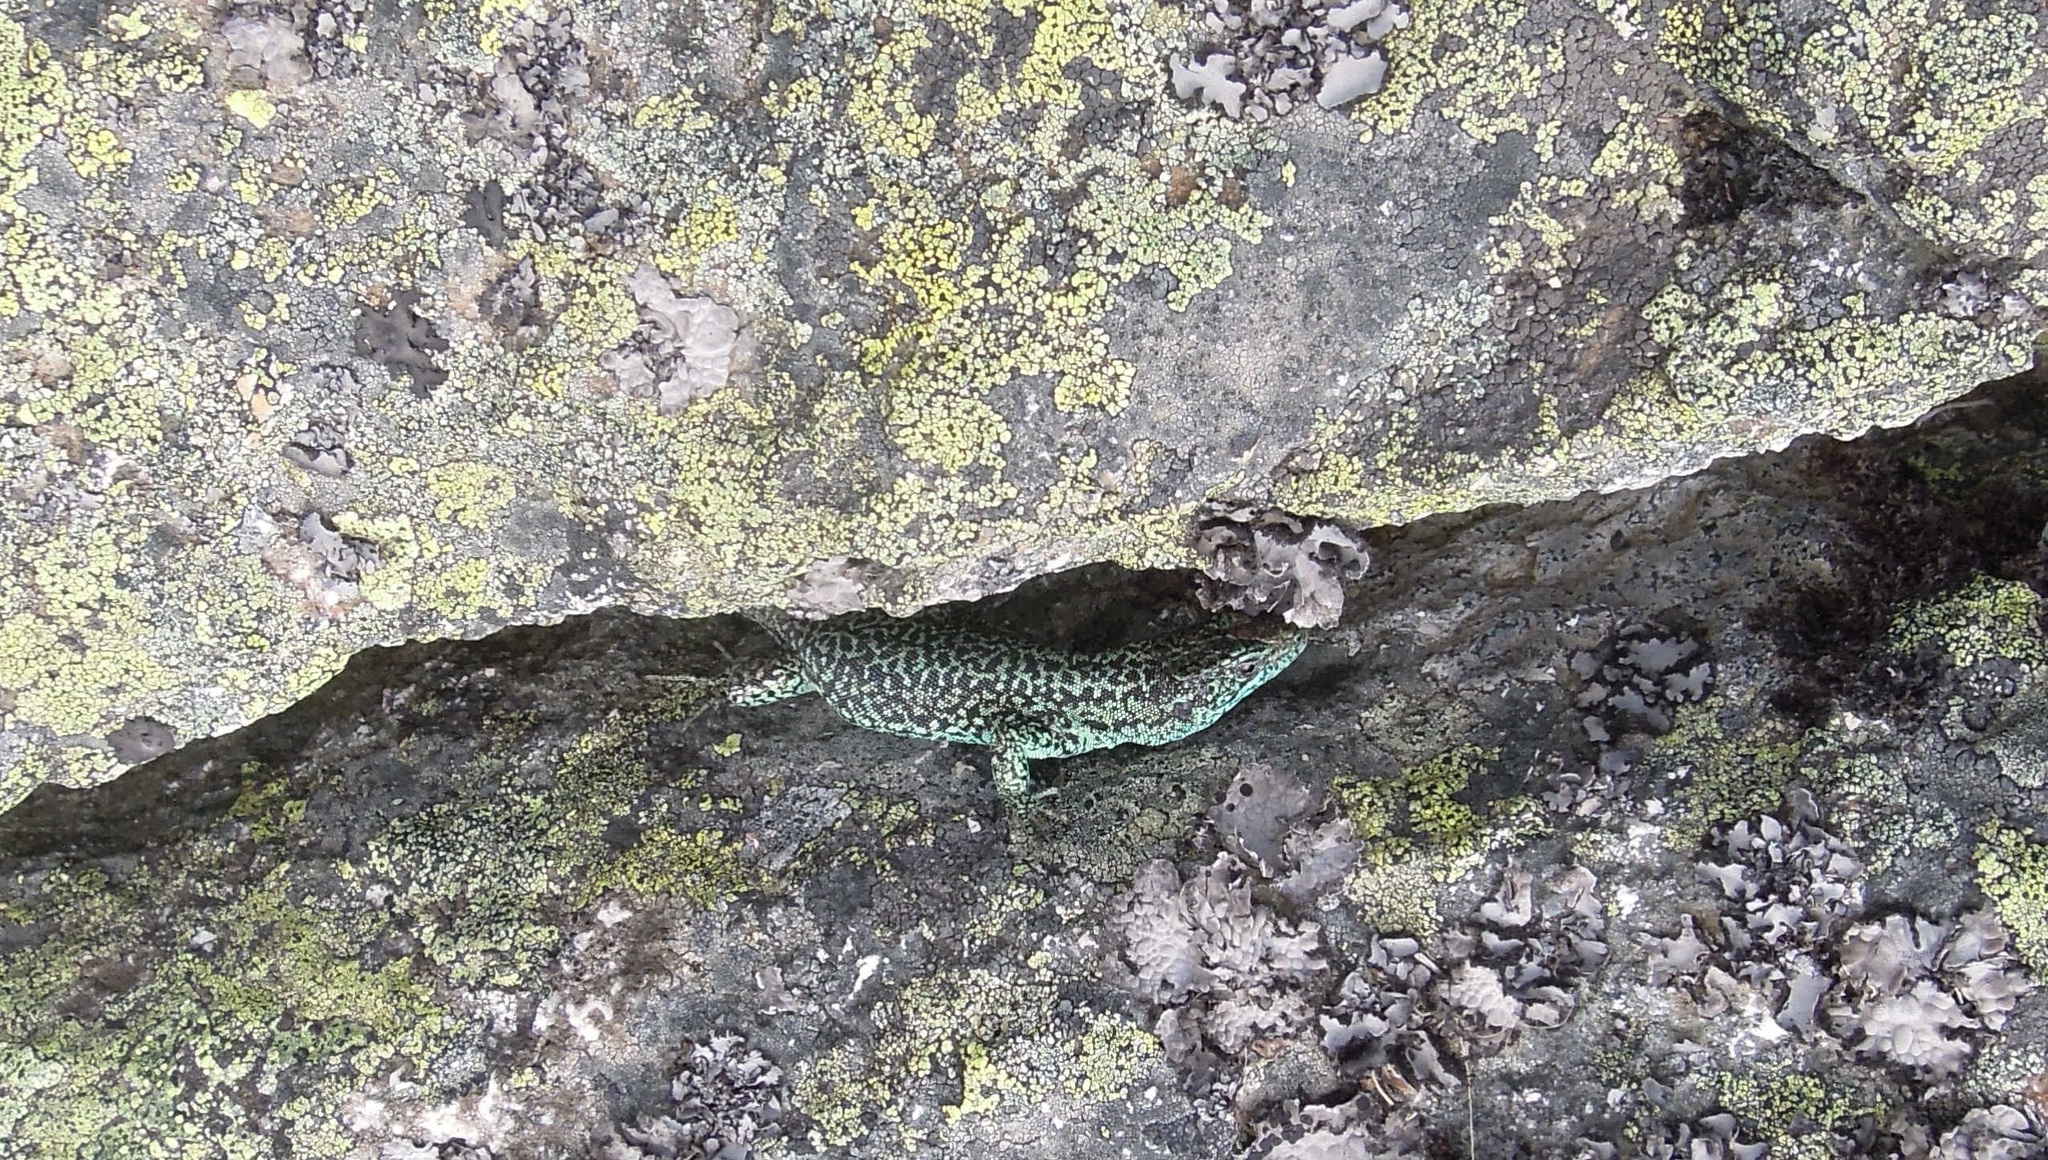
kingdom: Animalia
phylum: Chordata
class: Squamata
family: Lacertidae
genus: Iberolacerta
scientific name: Iberolacerta monticola
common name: Iberian mountain lizard
